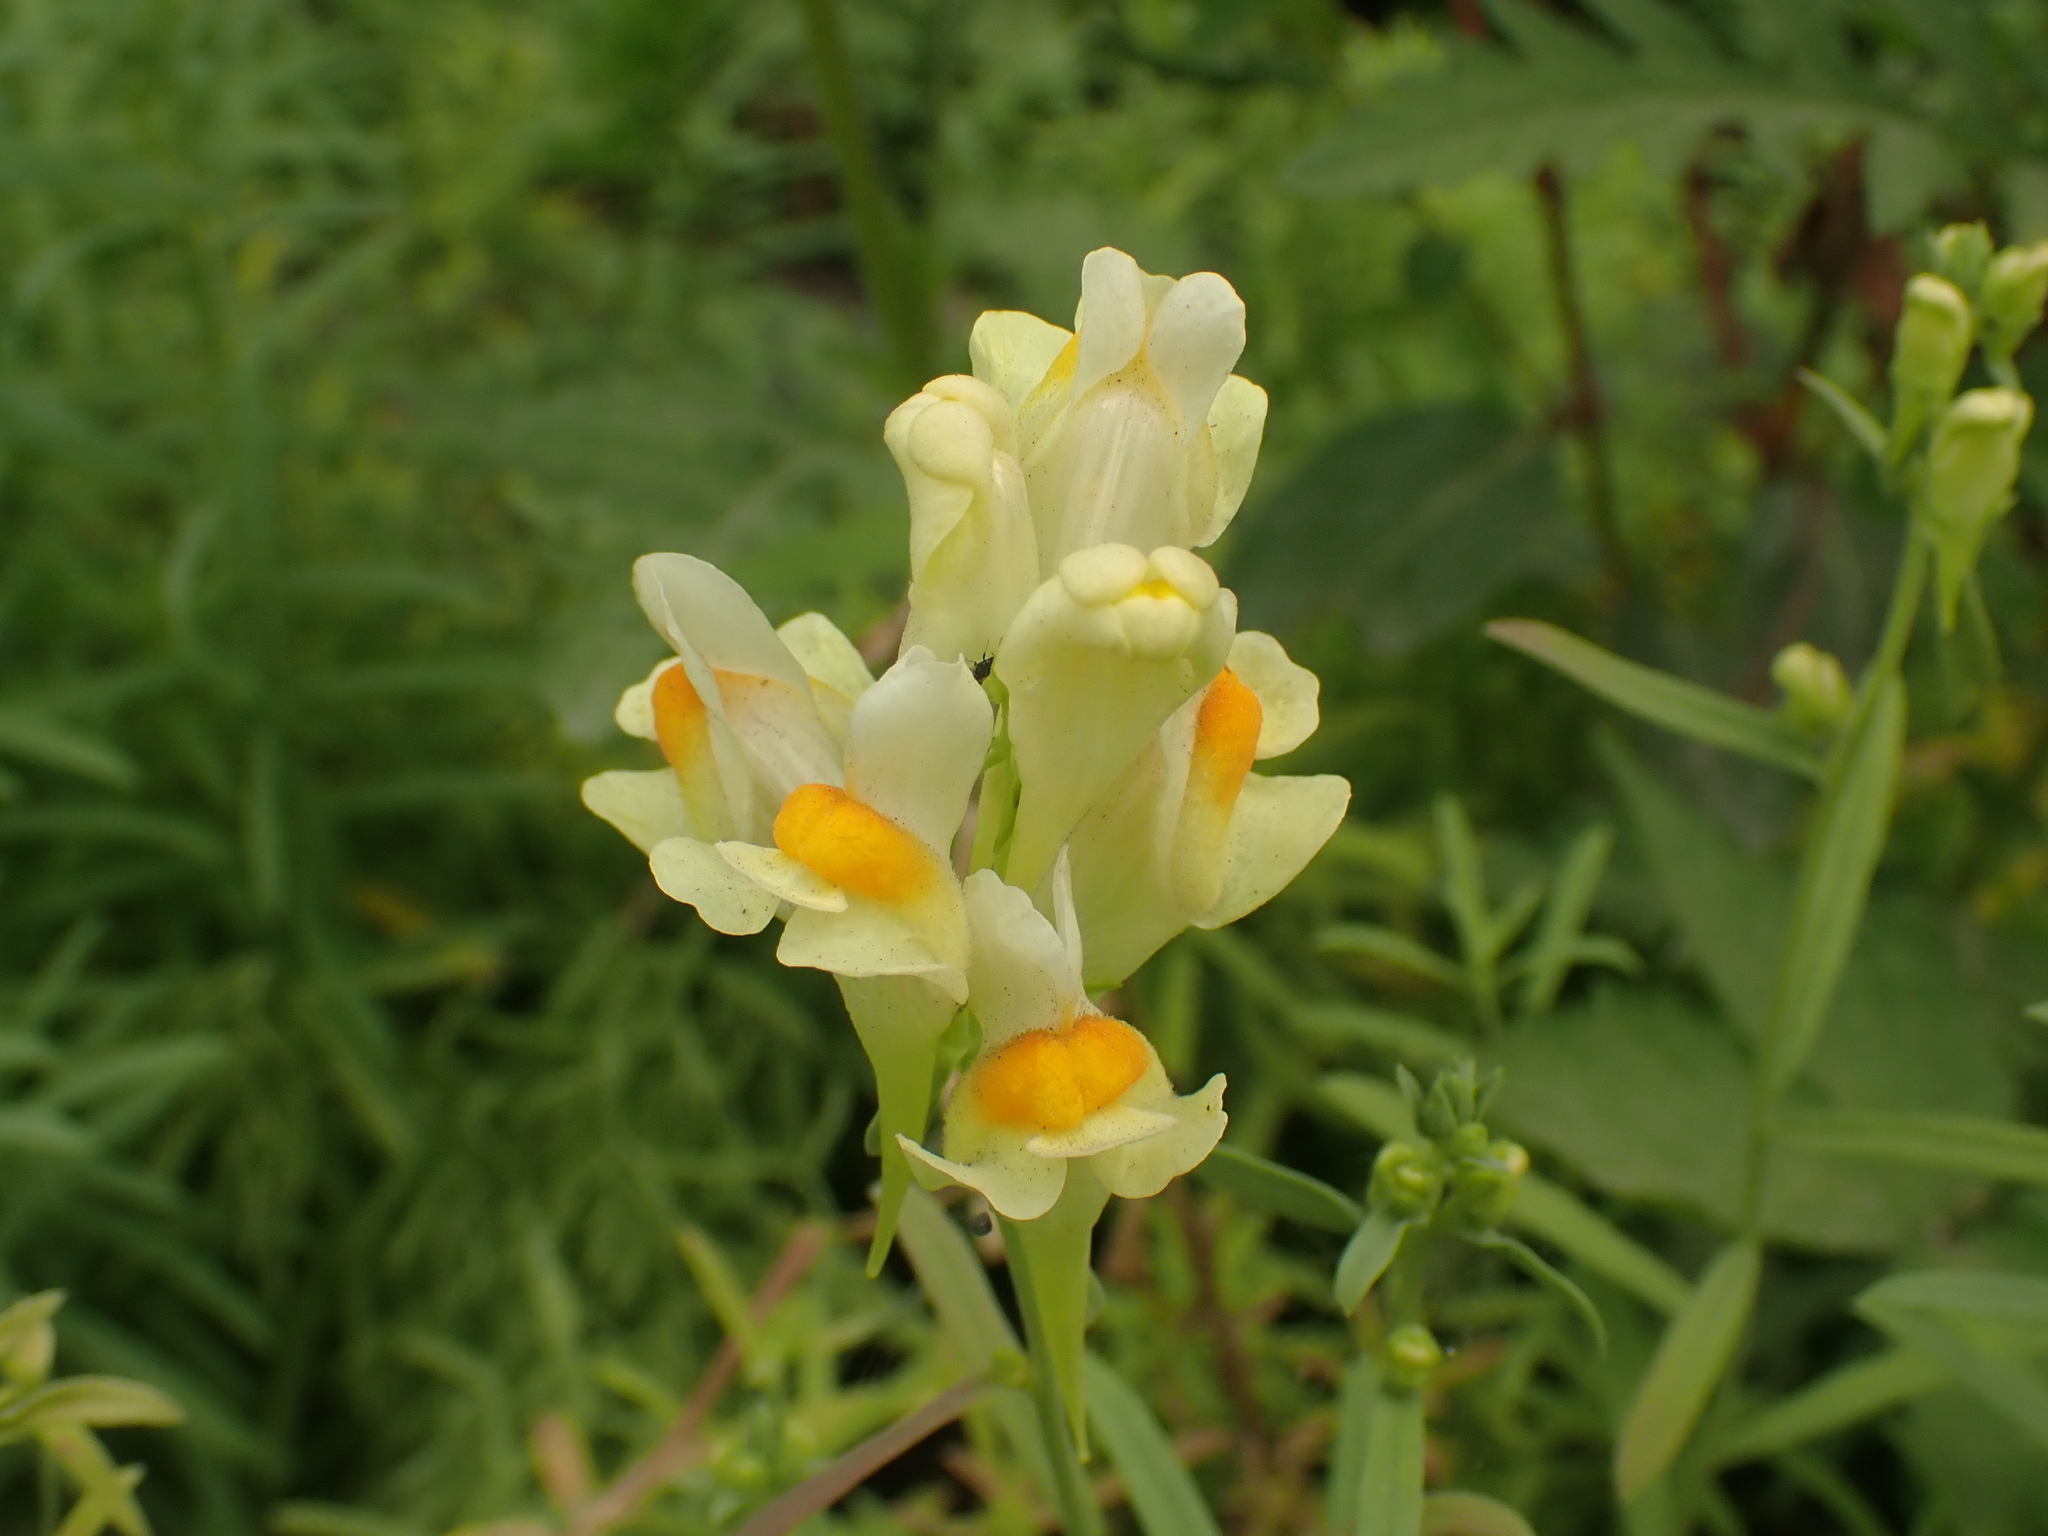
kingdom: Plantae
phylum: Tracheophyta
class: Magnoliopsida
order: Lamiales
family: Plantaginaceae
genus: Linaria
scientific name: Linaria vulgaris
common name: Butter and eggs
